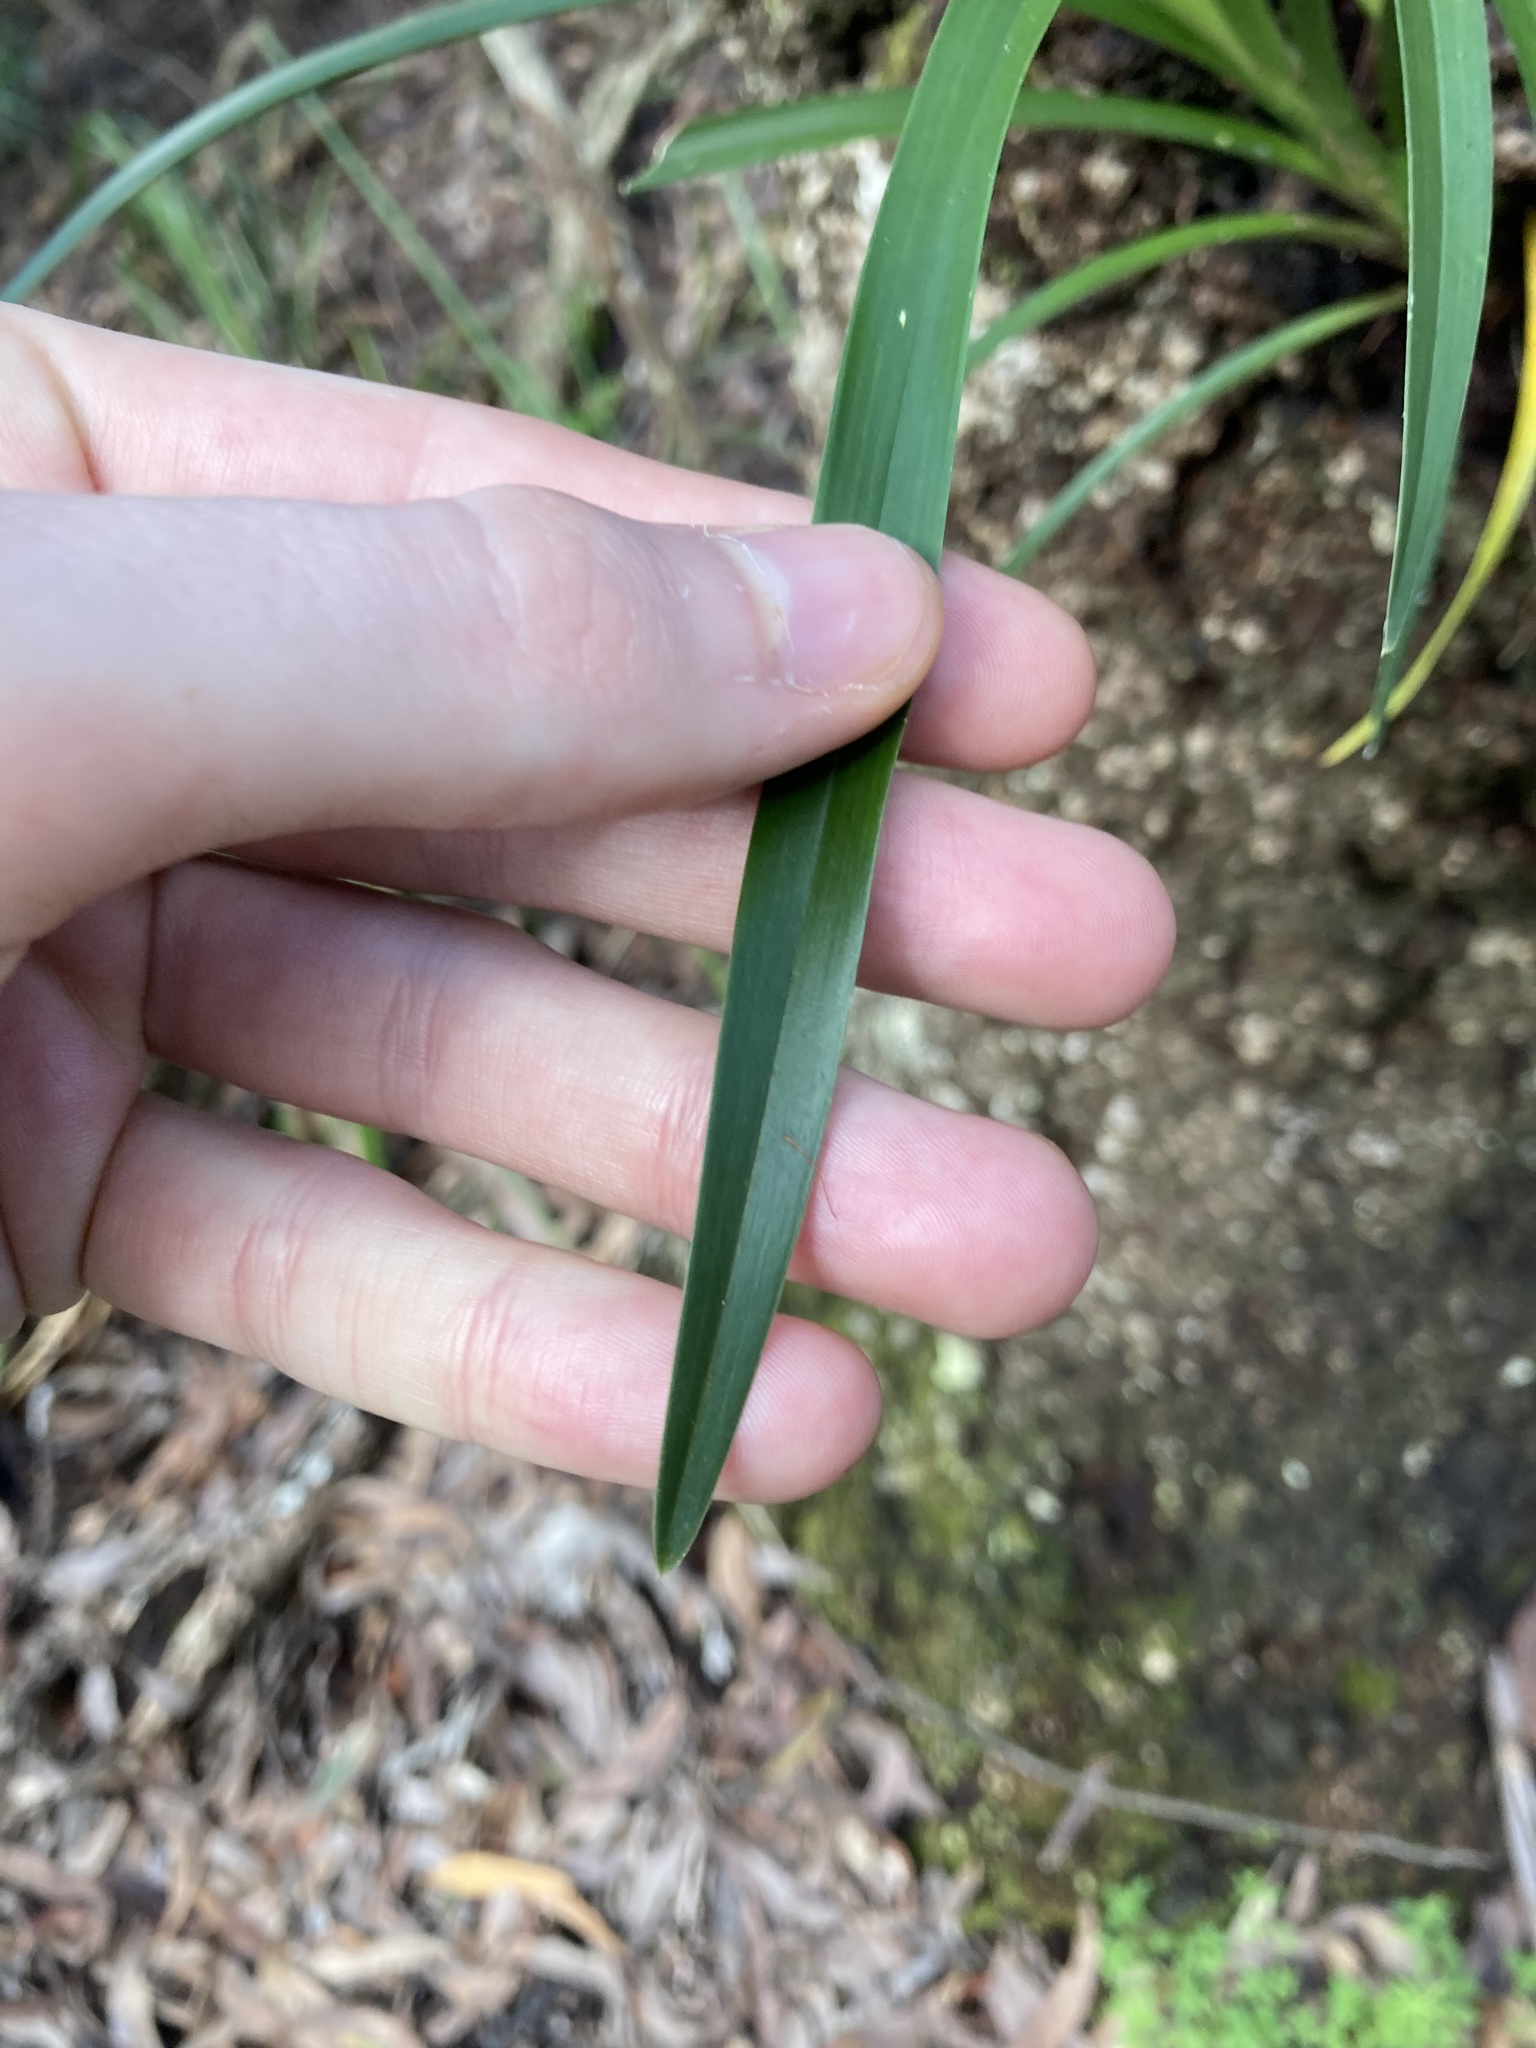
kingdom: Plantae
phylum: Tracheophyta
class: Liliopsida
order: Asparagales
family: Orchidaceae
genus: Cymbidium
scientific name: Cymbidium suave
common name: Snake orchid
